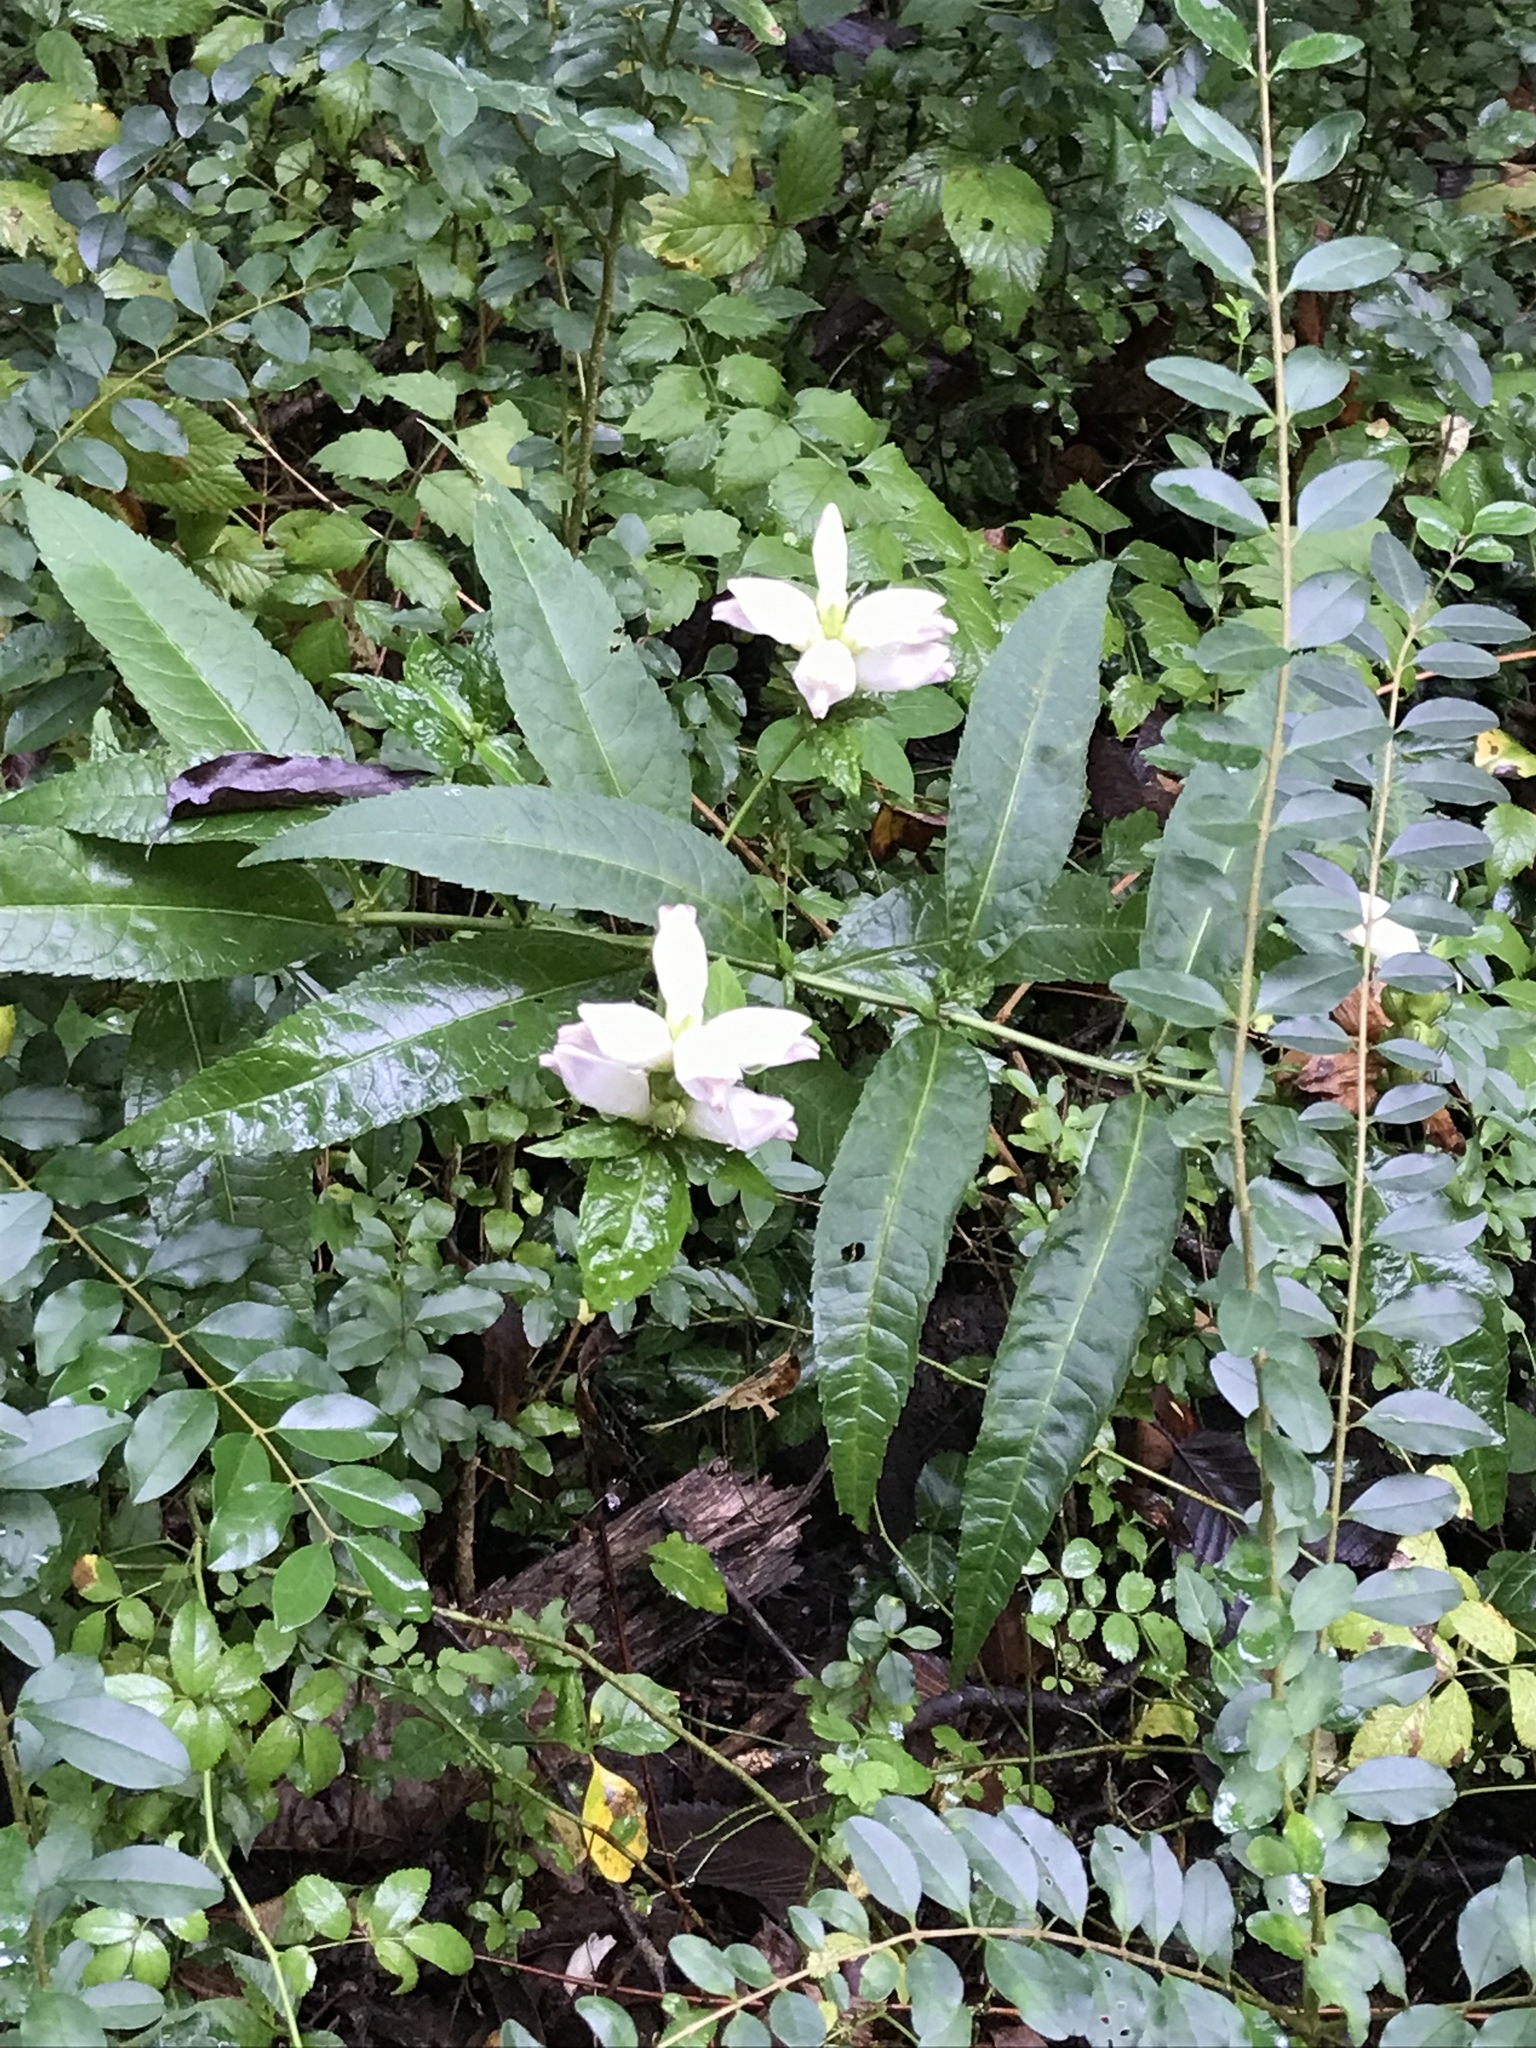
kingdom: Plantae
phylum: Tracheophyta
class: Magnoliopsida
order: Lamiales
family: Plantaginaceae
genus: Chelone
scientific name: Chelone glabra
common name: Snakehead
